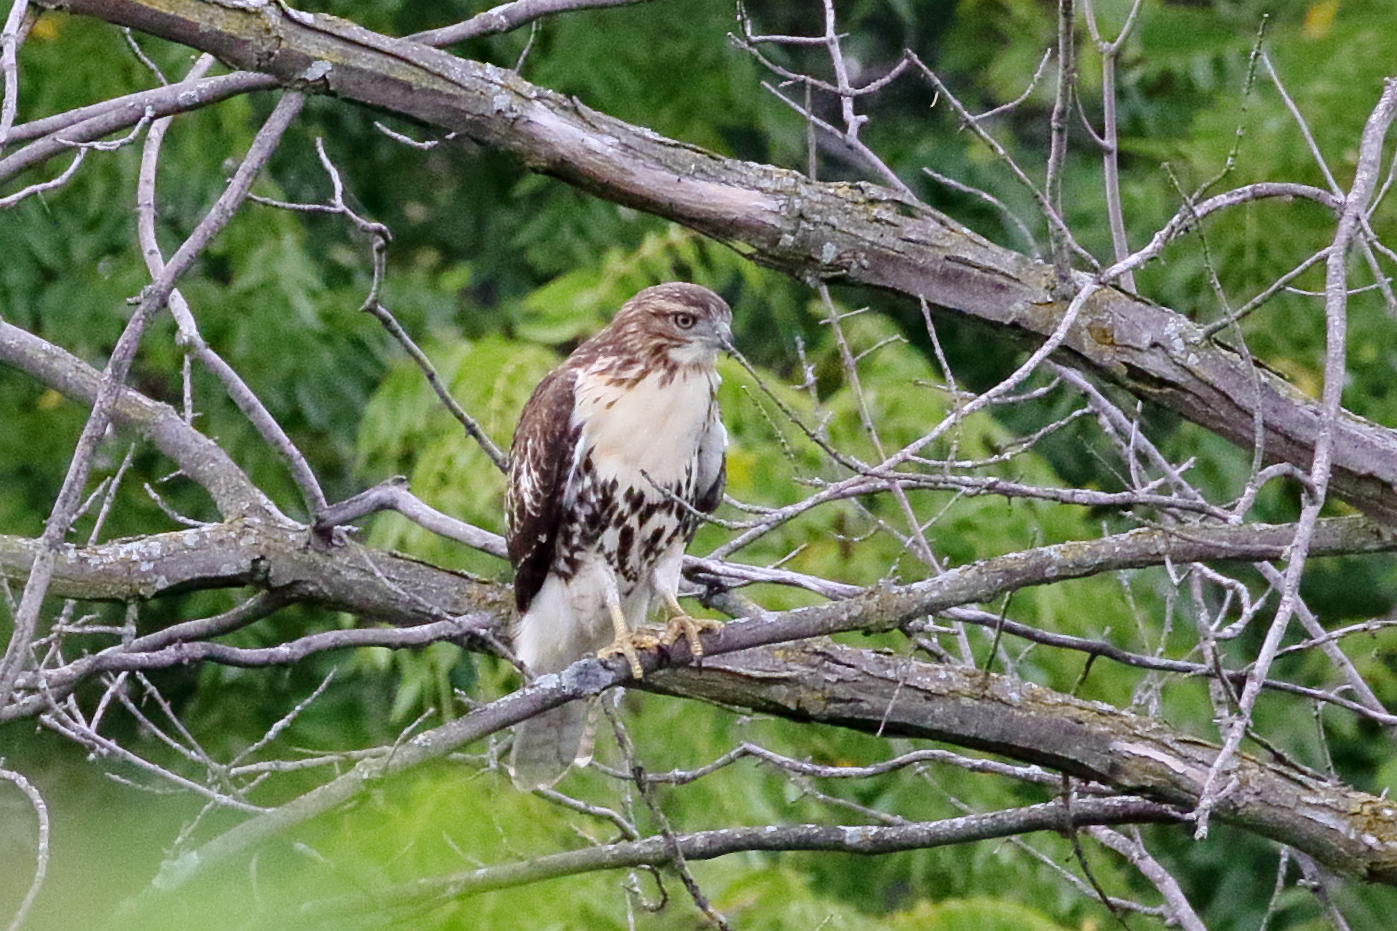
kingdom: Animalia
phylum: Chordata
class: Aves
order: Accipitriformes
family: Accipitridae
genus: Buteo
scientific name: Buteo jamaicensis
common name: Red-tailed hawk
